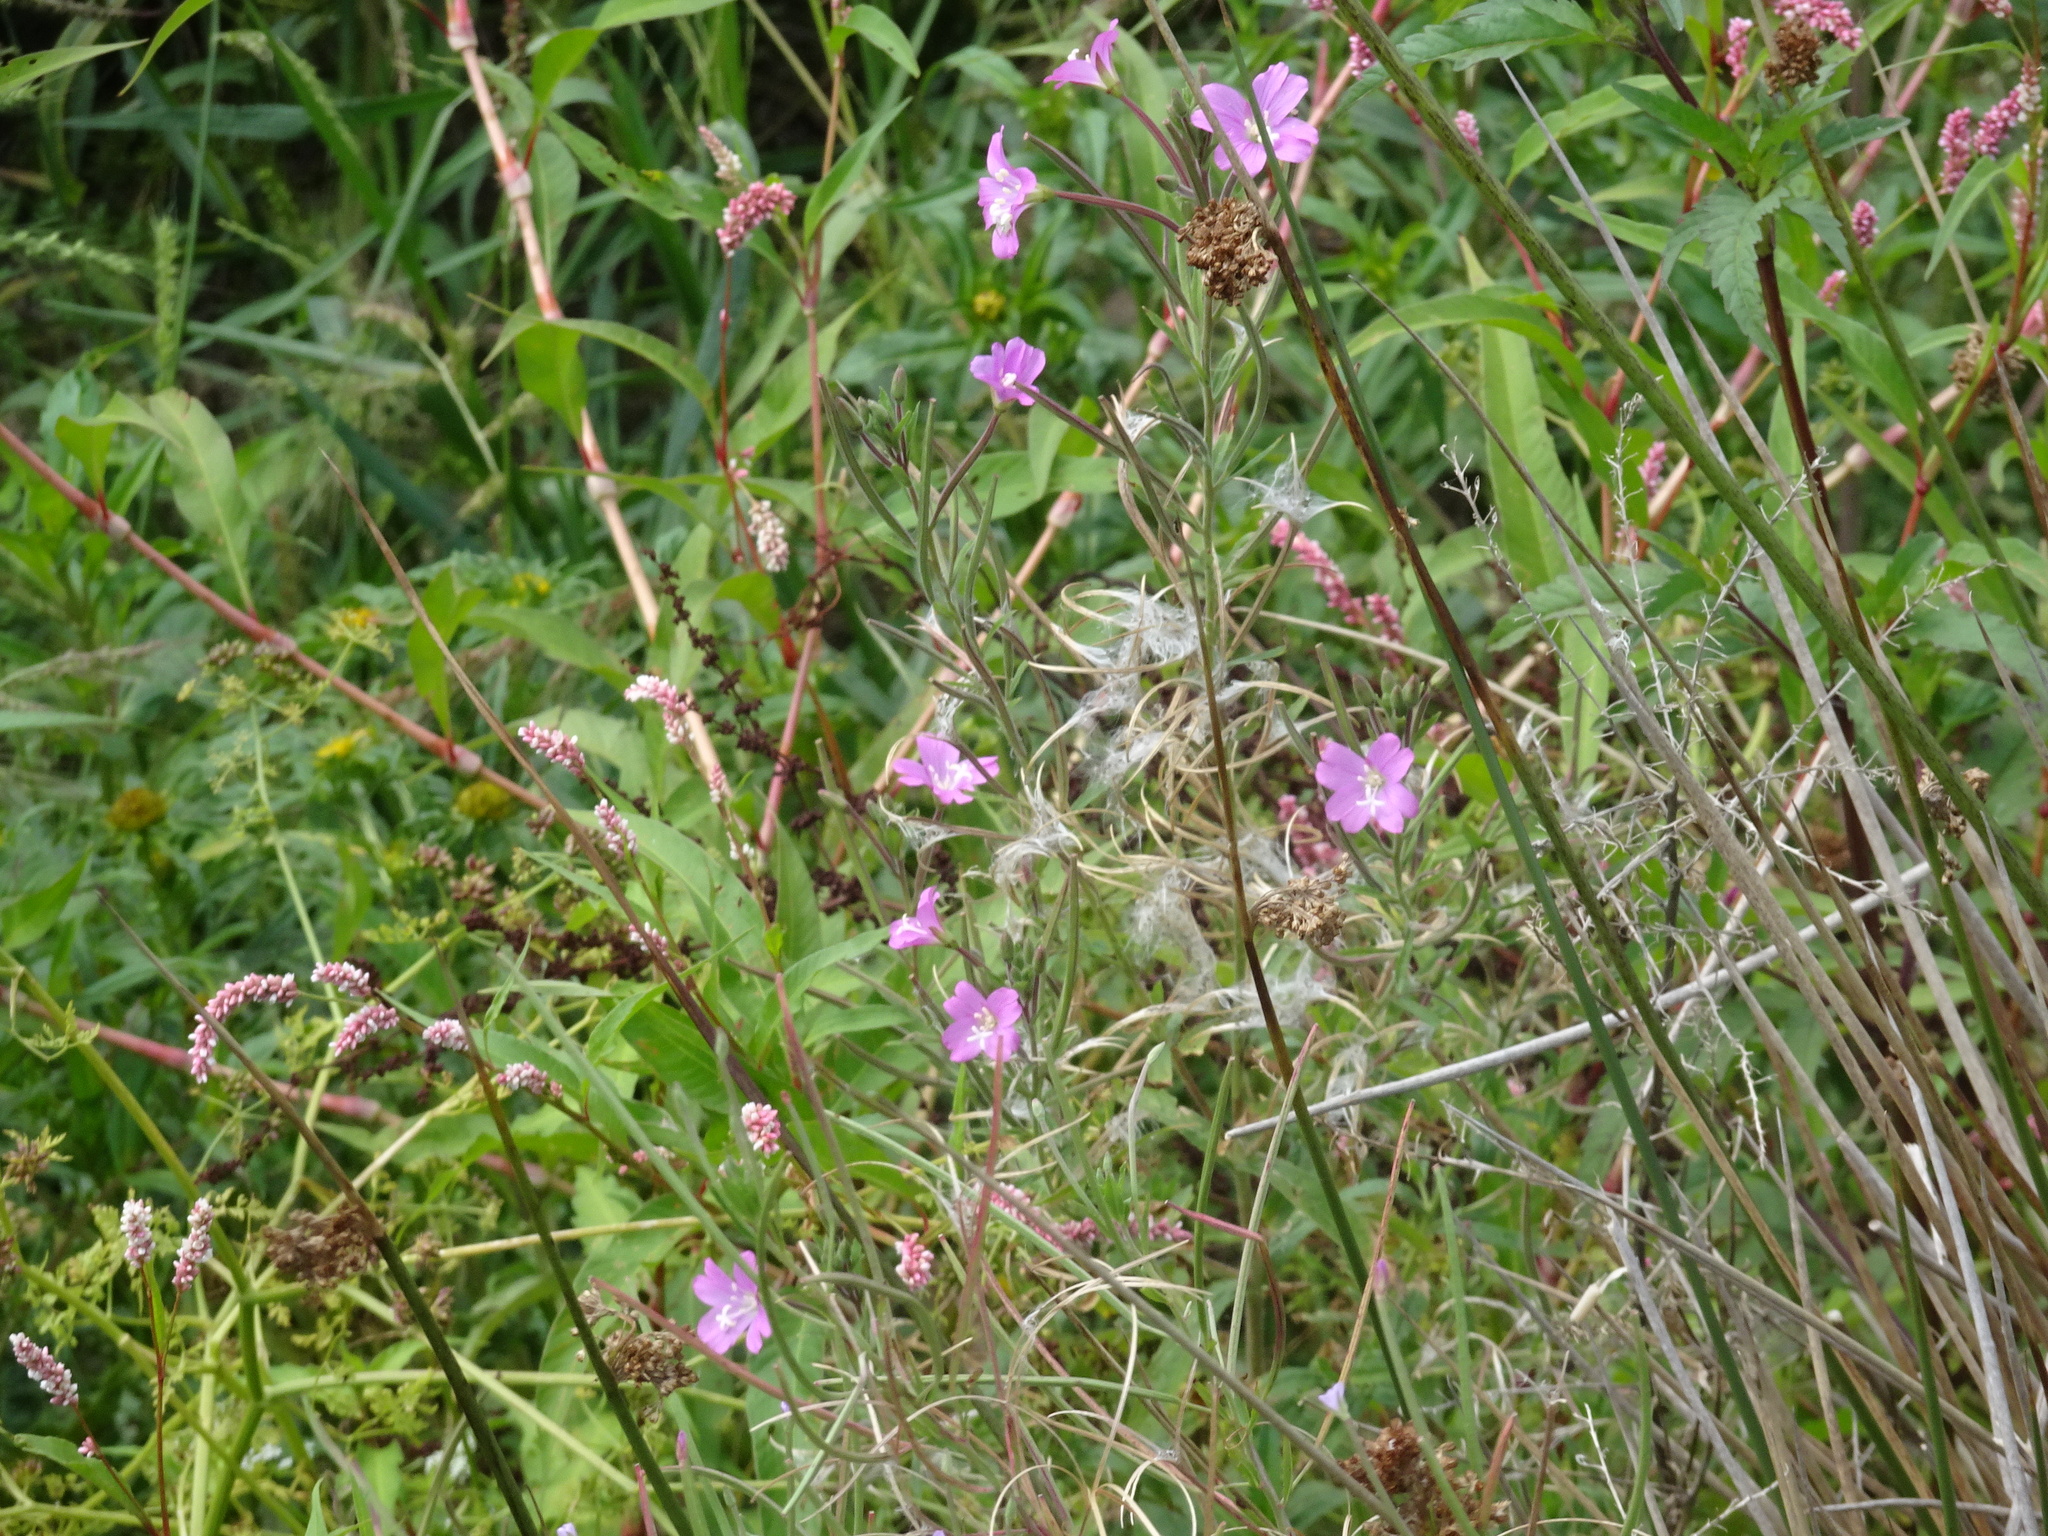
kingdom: Plantae
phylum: Tracheophyta
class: Magnoliopsida
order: Myrtales
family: Onagraceae
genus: Epilobium
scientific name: Epilobium hirsutum
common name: Great willowherb
